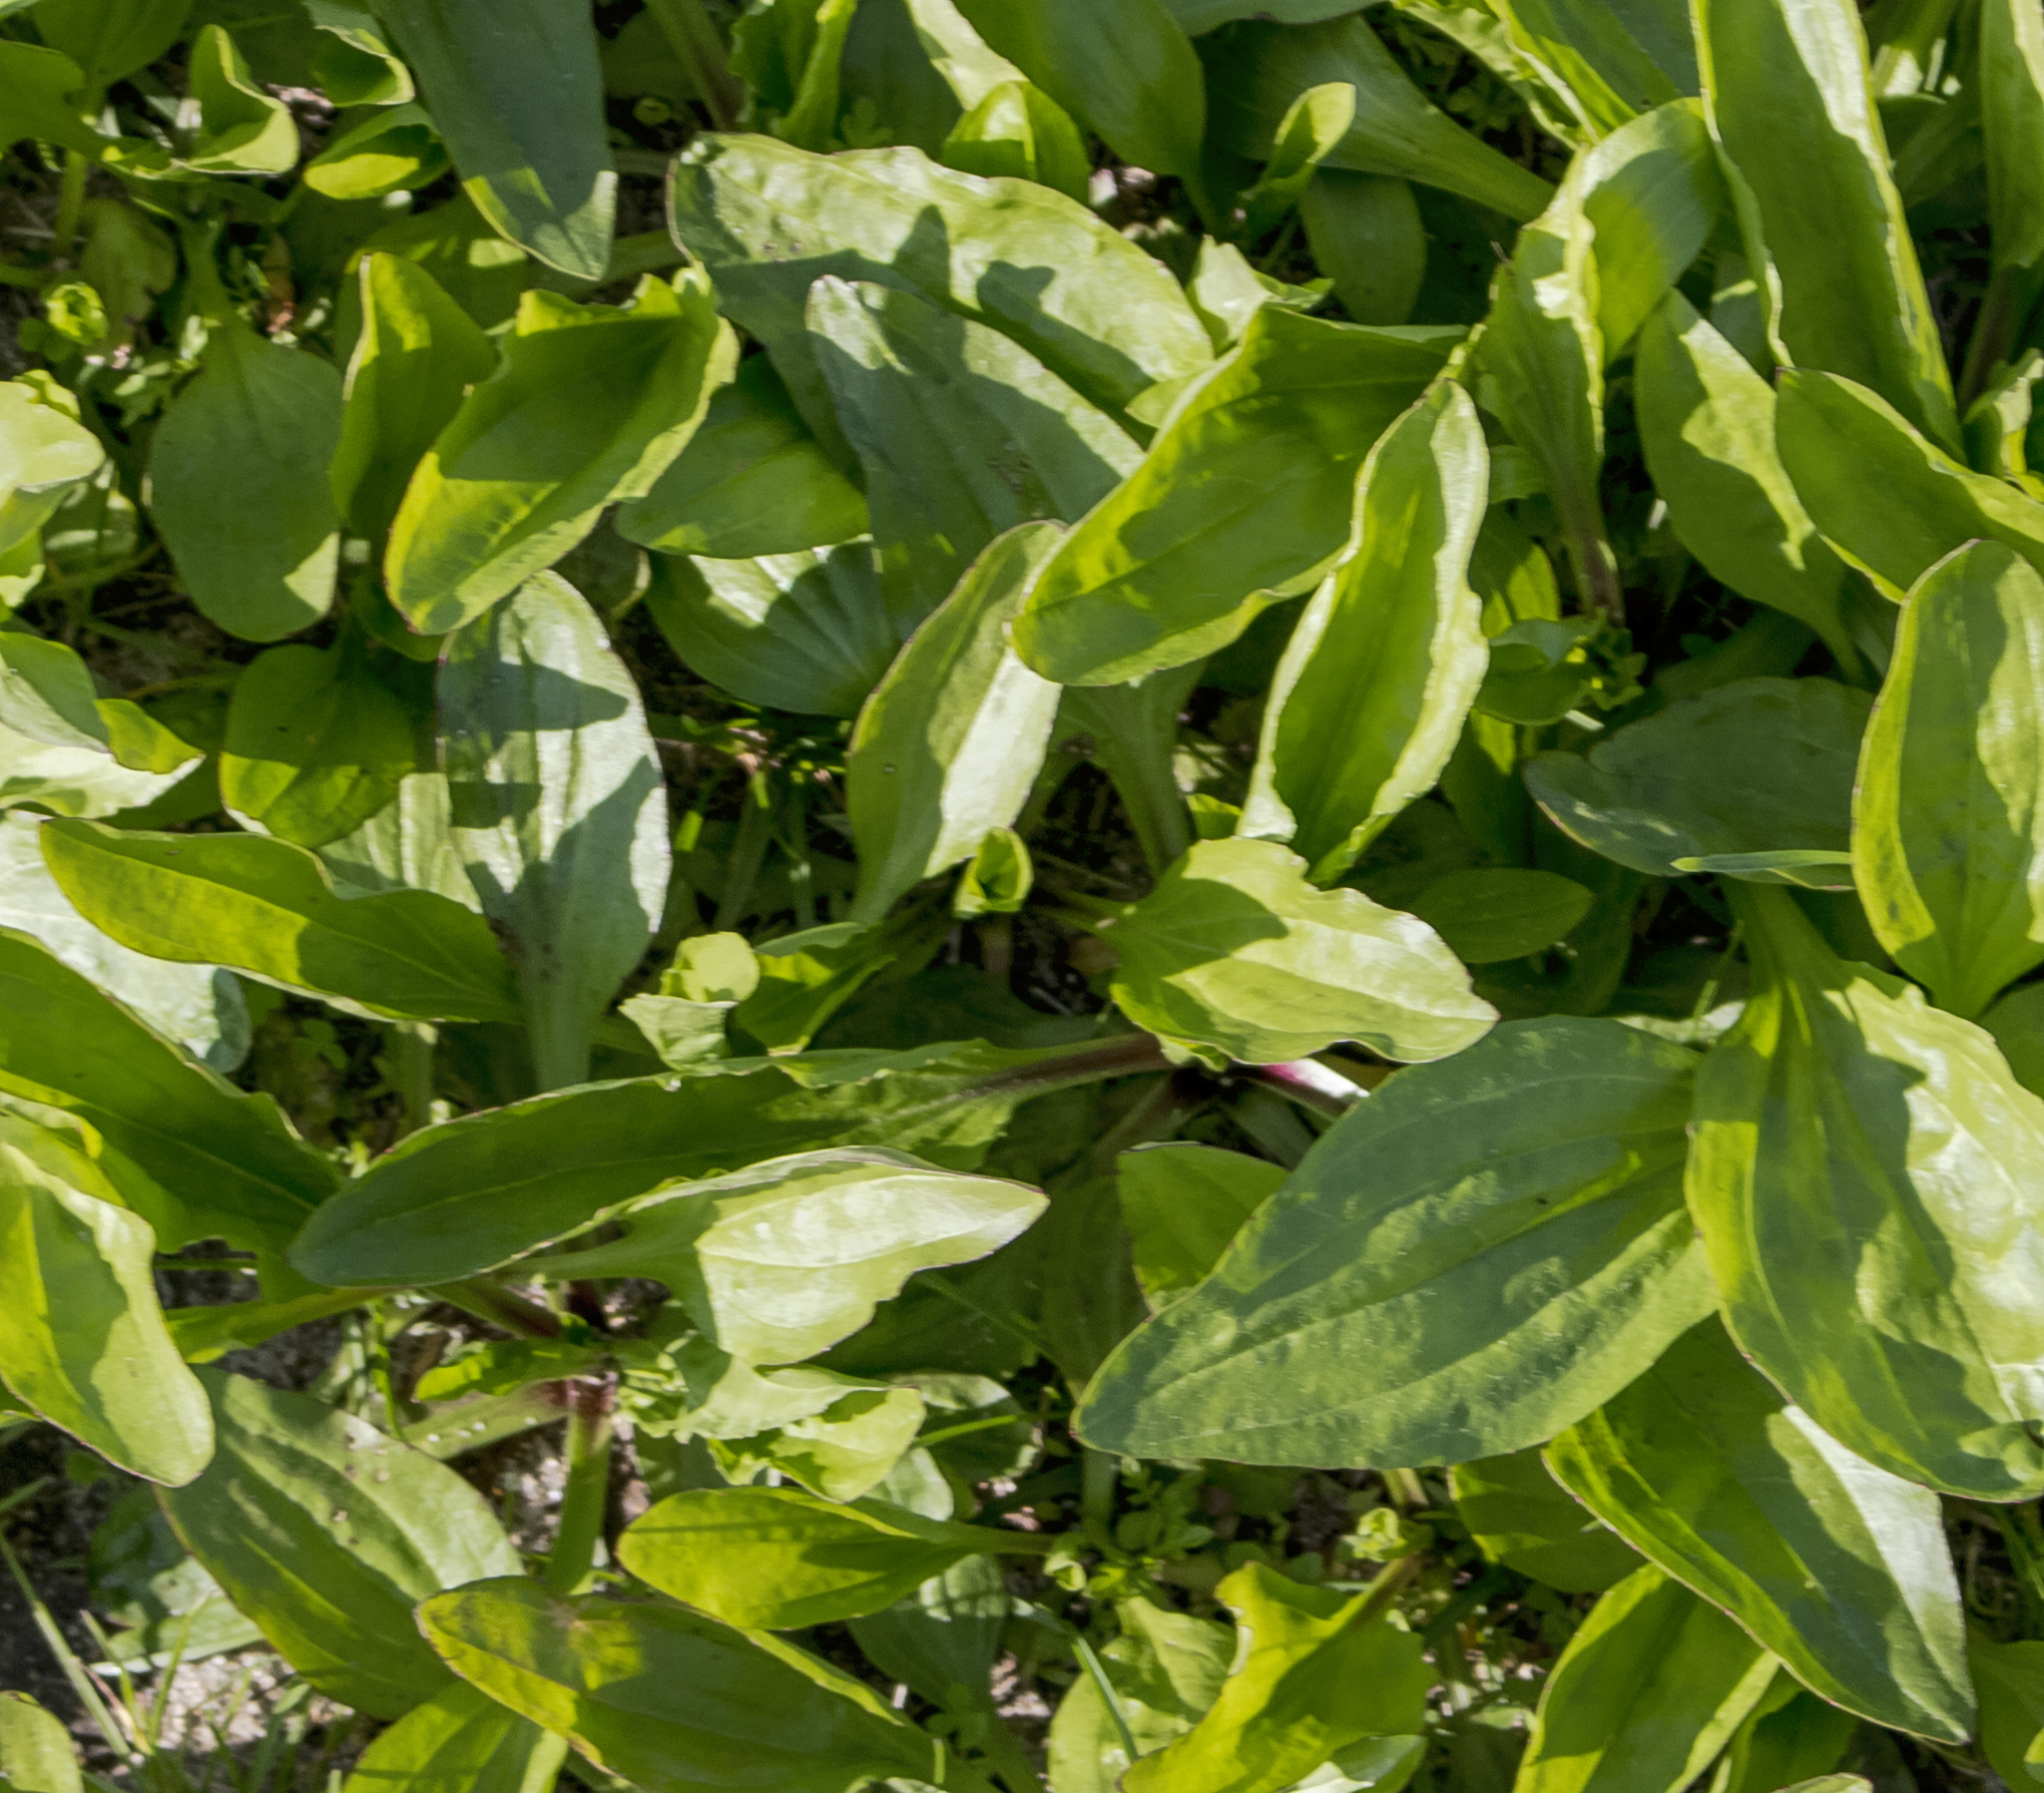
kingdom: Plantae
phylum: Tracheophyta
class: Magnoliopsida
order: Lamiales
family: Plantaginaceae
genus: Plantago
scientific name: Plantago rugelii
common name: American plantain
